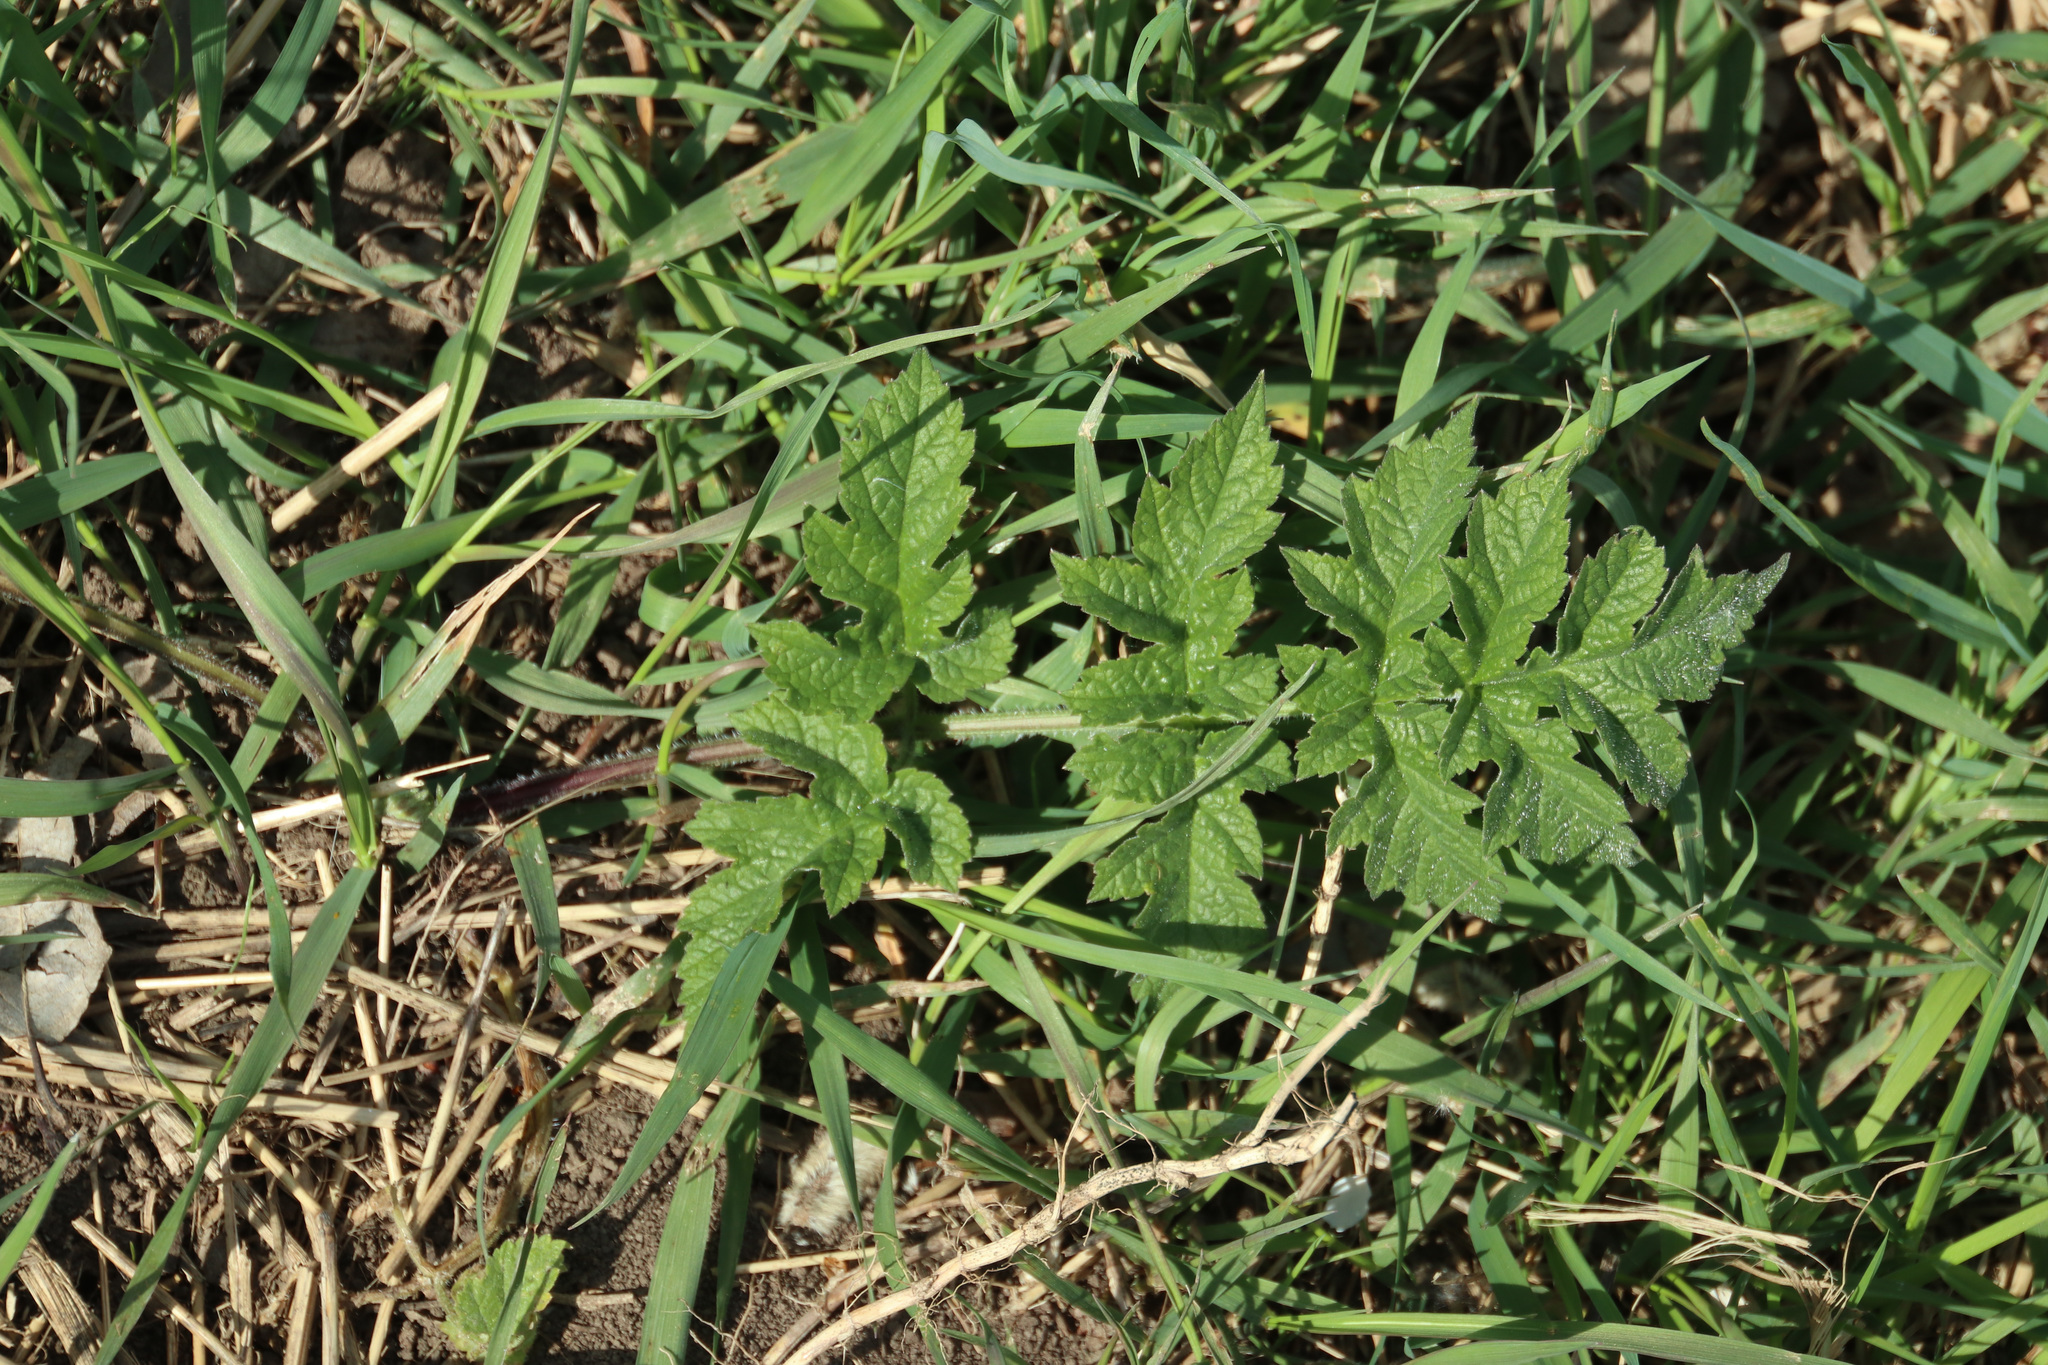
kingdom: Plantae
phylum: Tracheophyta
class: Magnoliopsida
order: Apiales
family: Apiaceae
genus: Heracleum
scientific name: Heracleum sphondylium
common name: Hogweed
